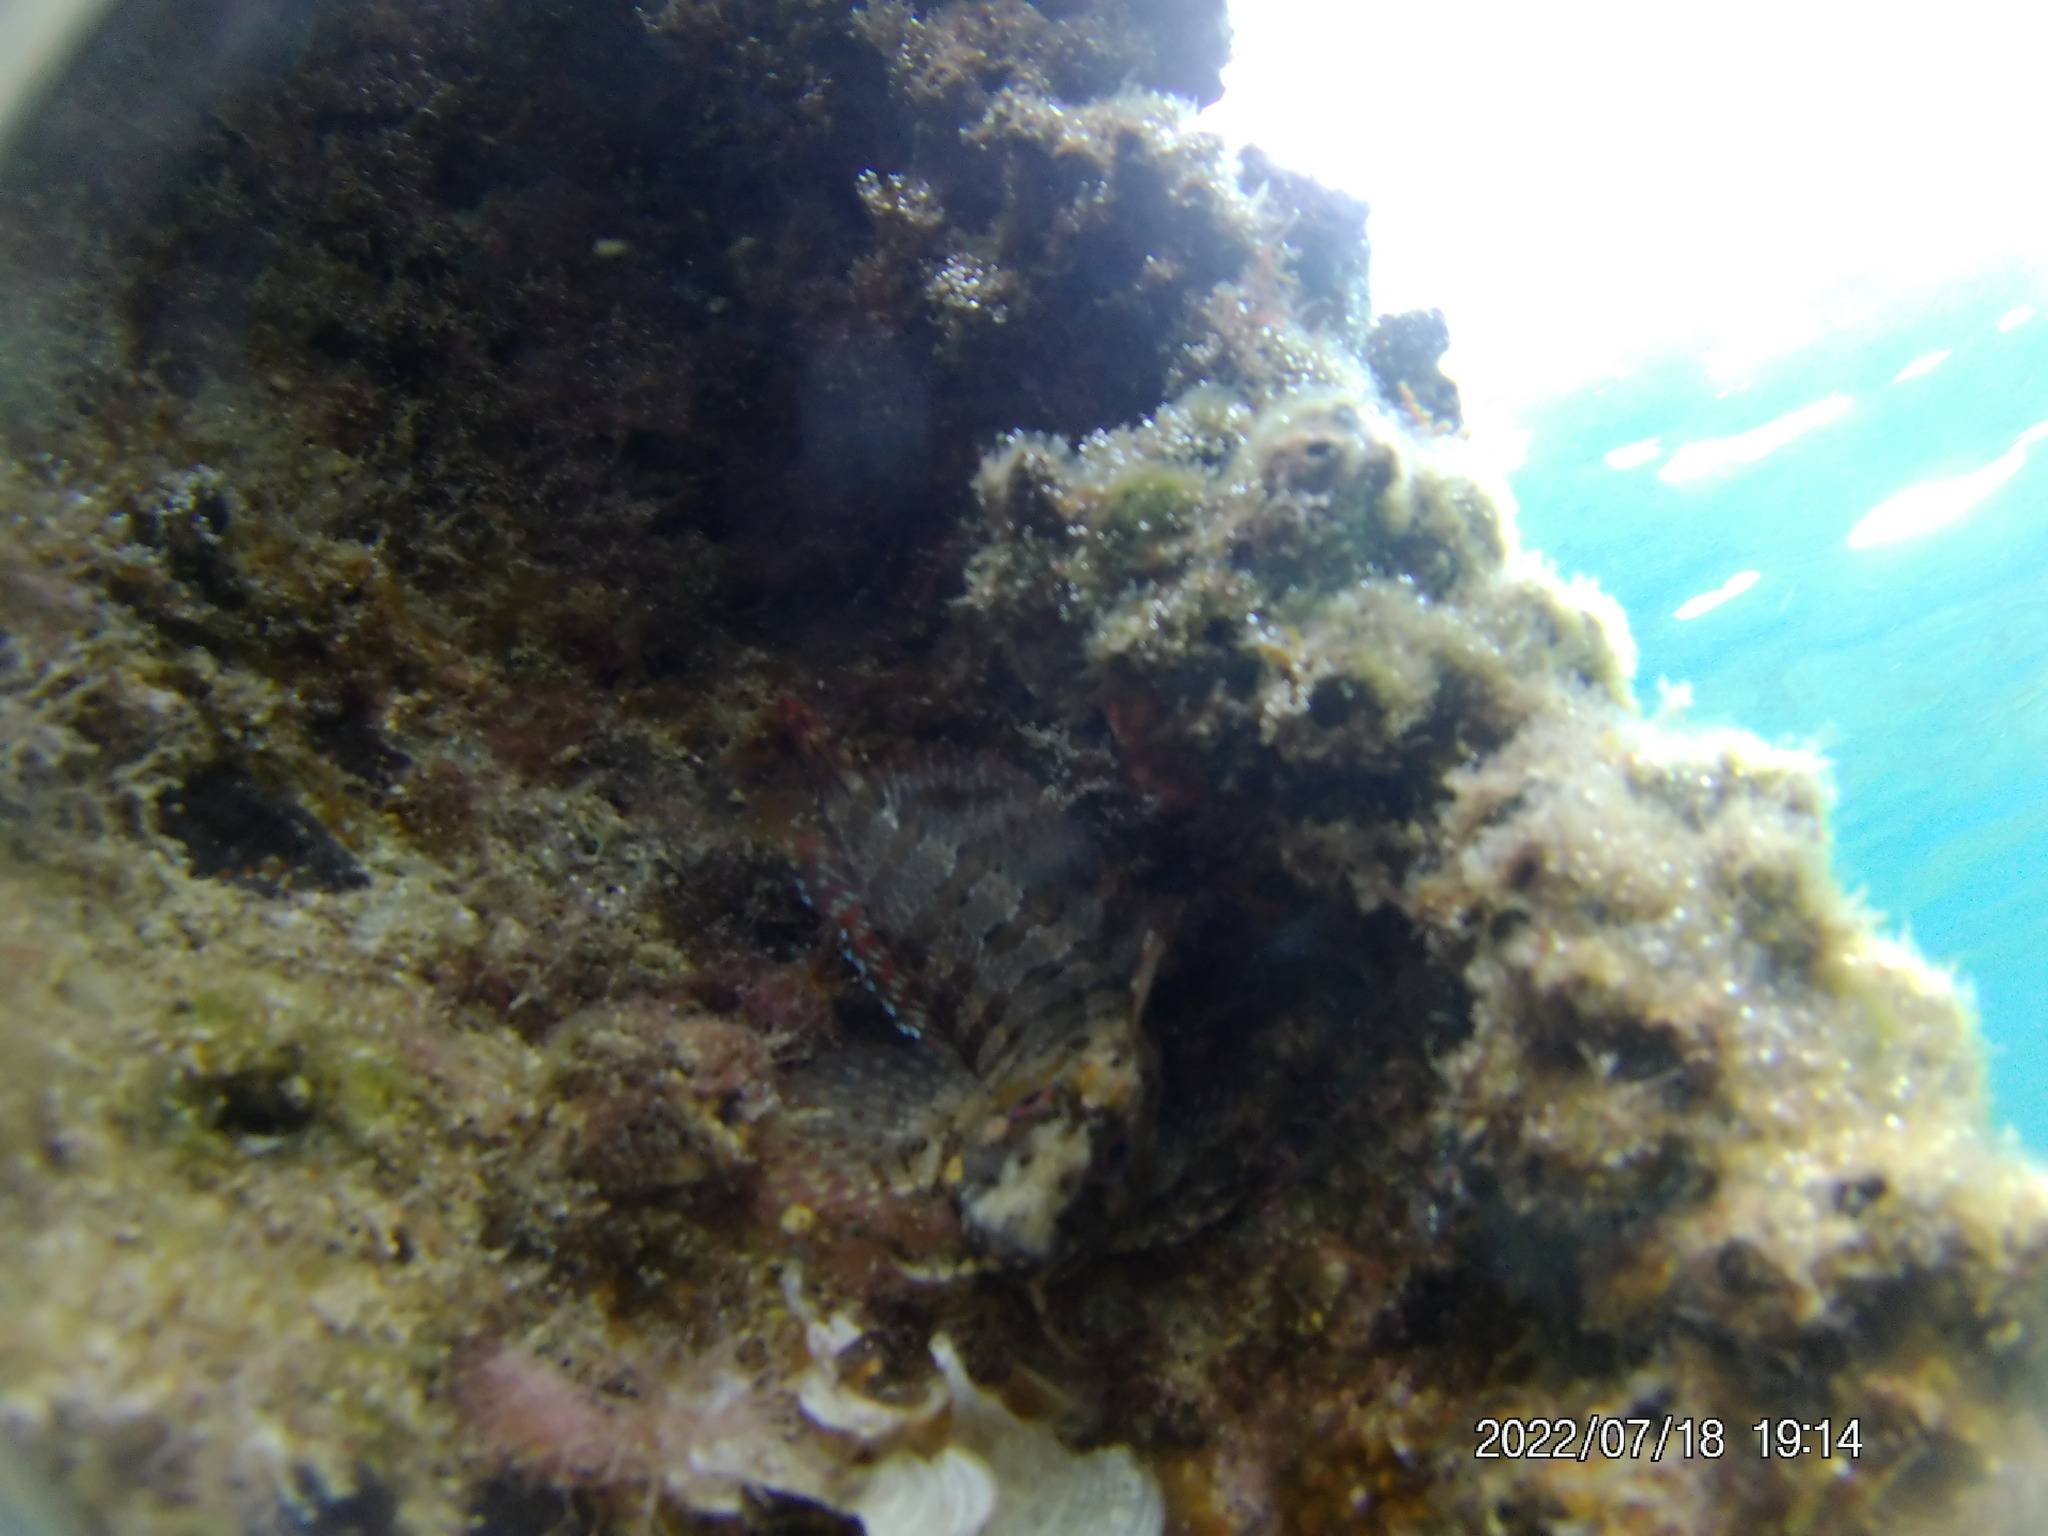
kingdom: Animalia
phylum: Chordata
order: Perciformes
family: Blenniidae
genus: Parablennius
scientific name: Parablennius gattorugine
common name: Tompot blenny
